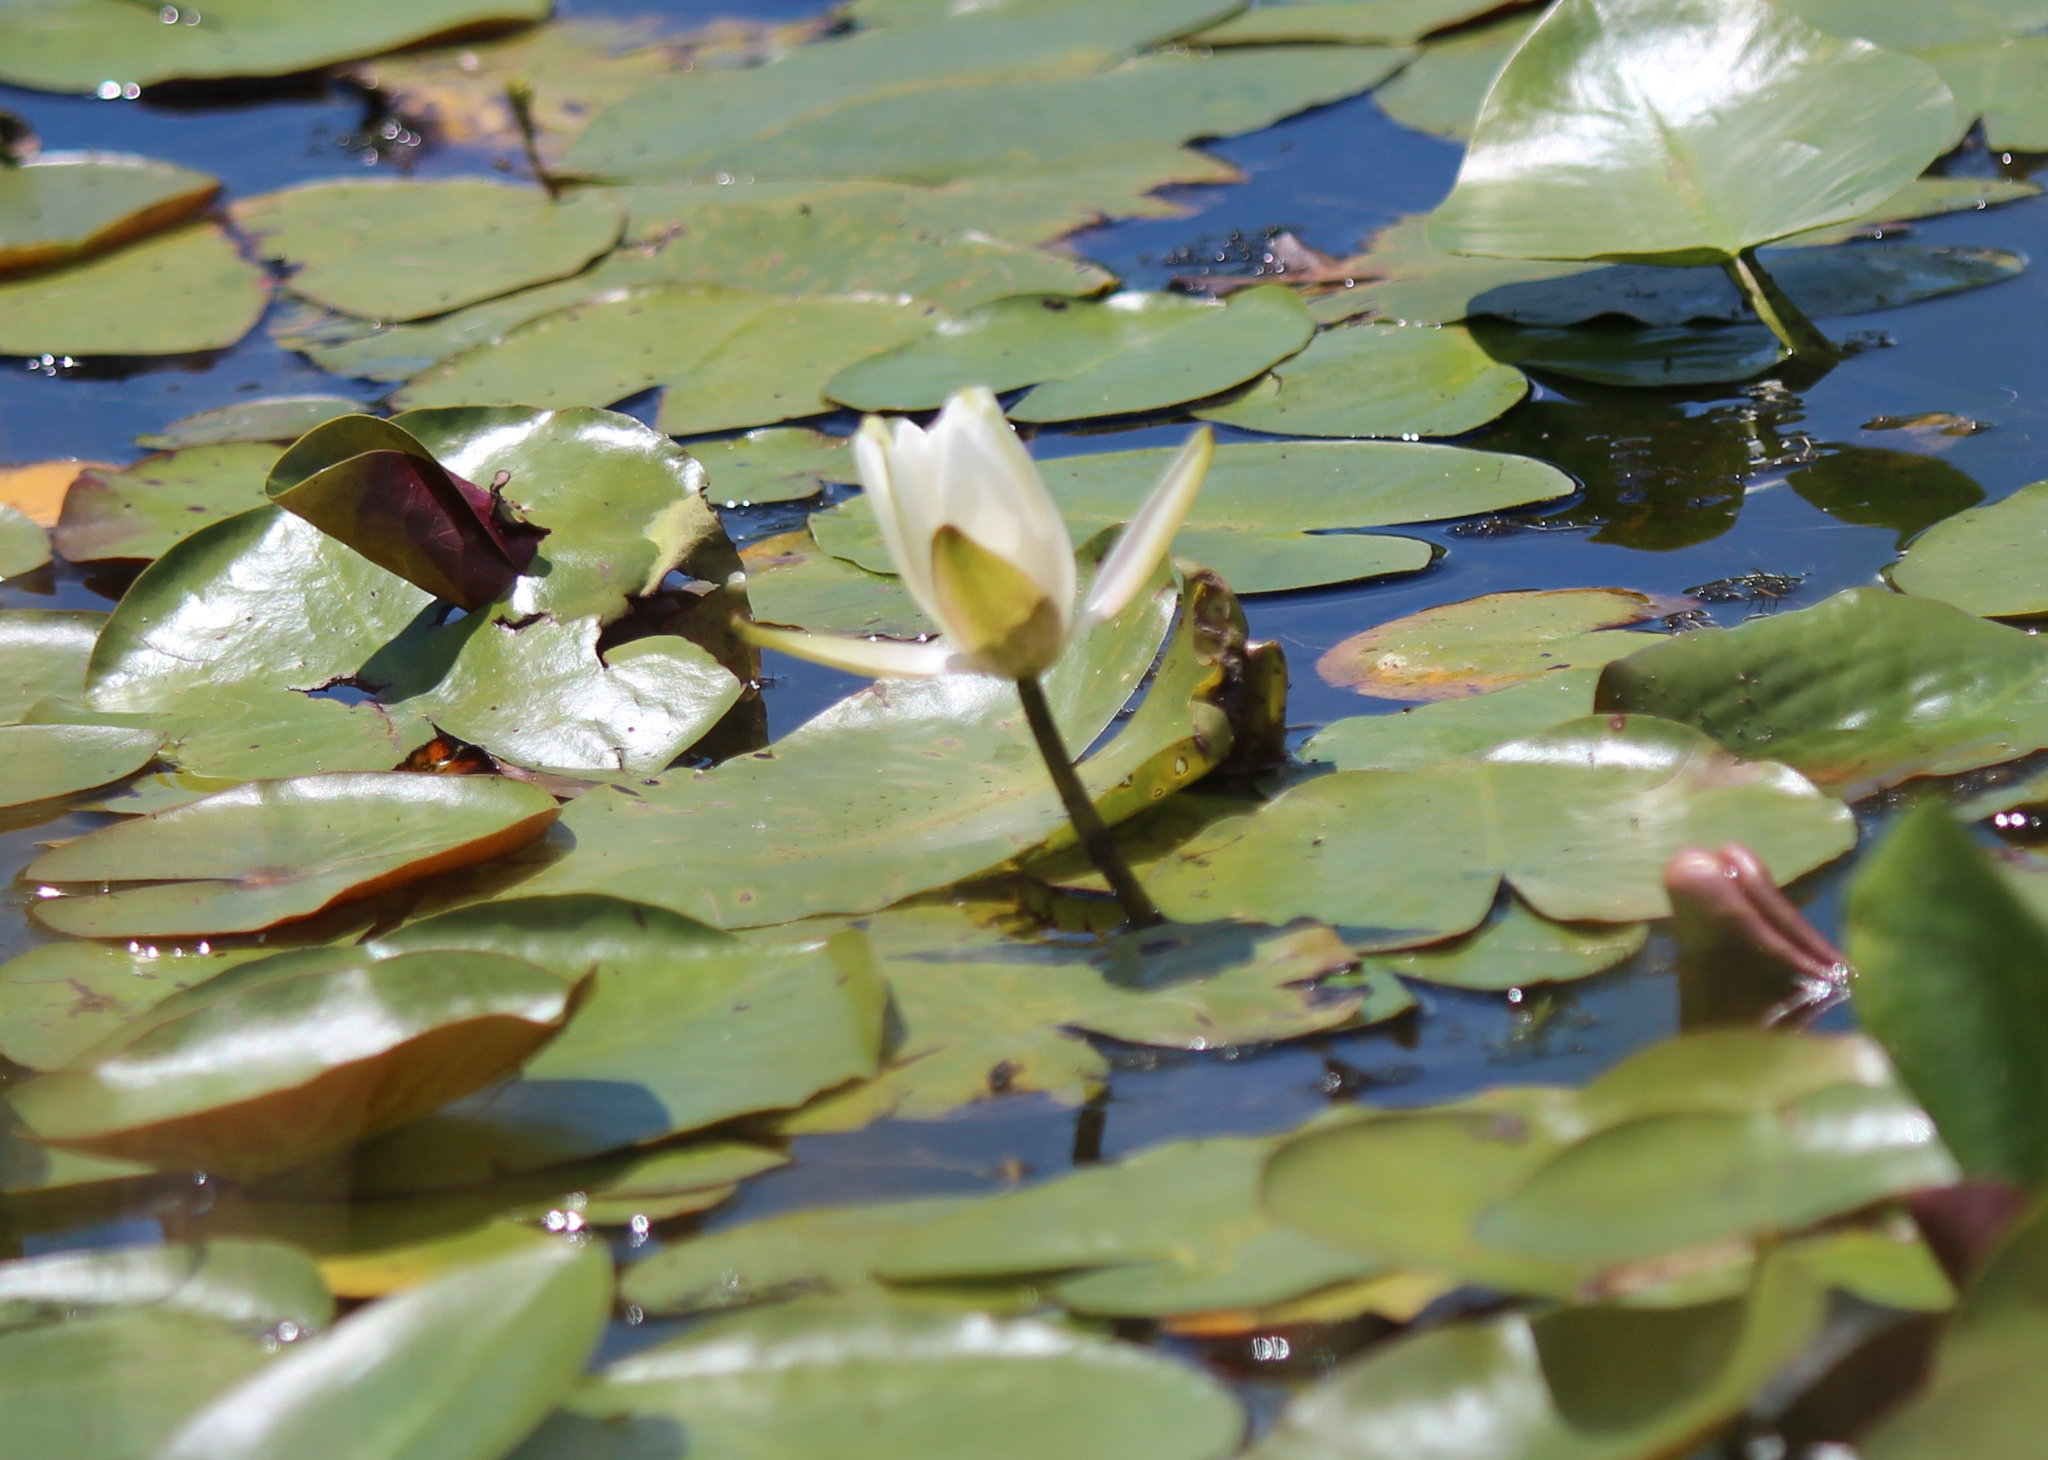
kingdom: Plantae
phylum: Tracheophyta
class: Magnoliopsida
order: Nymphaeales
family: Nymphaeaceae
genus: Nymphaea
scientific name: Nymphaea odorata
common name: Fragrant water-lily
